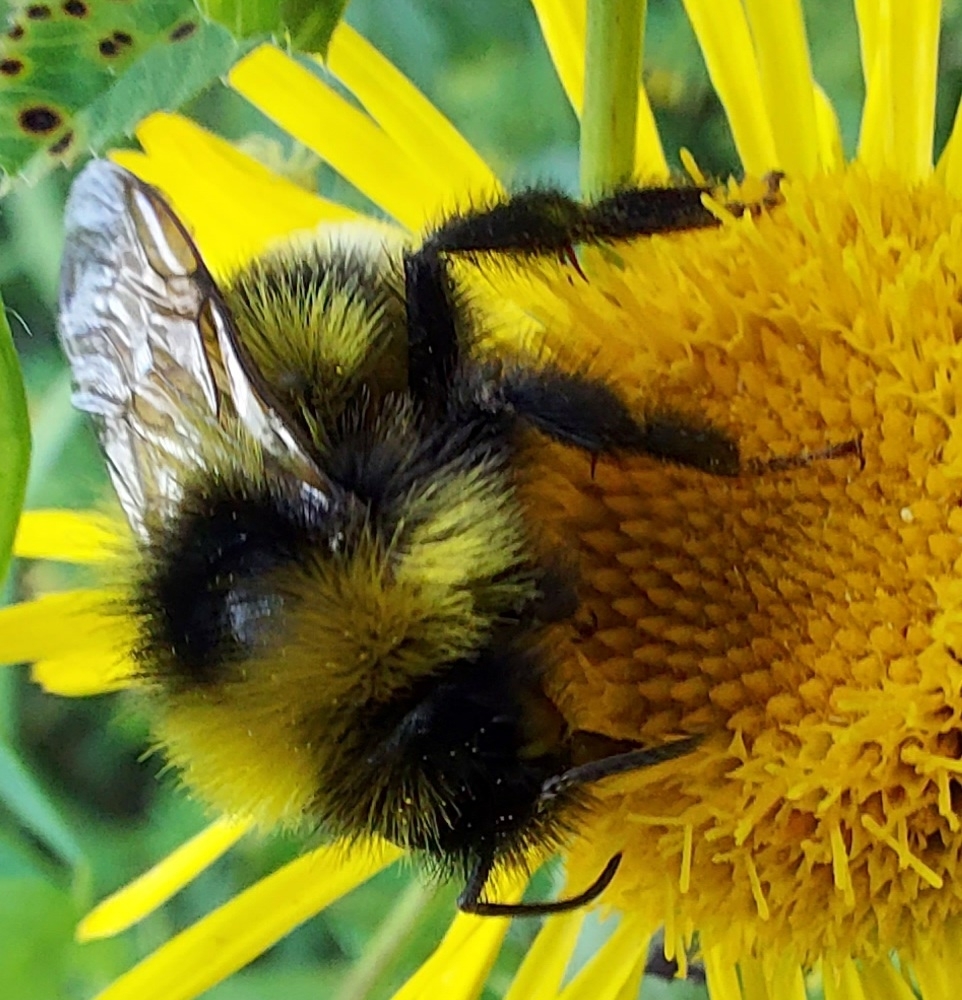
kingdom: Animalia
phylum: Arthropoda
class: Insecta
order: Hymenoptera
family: Apidae
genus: Bombus
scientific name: Bombus
